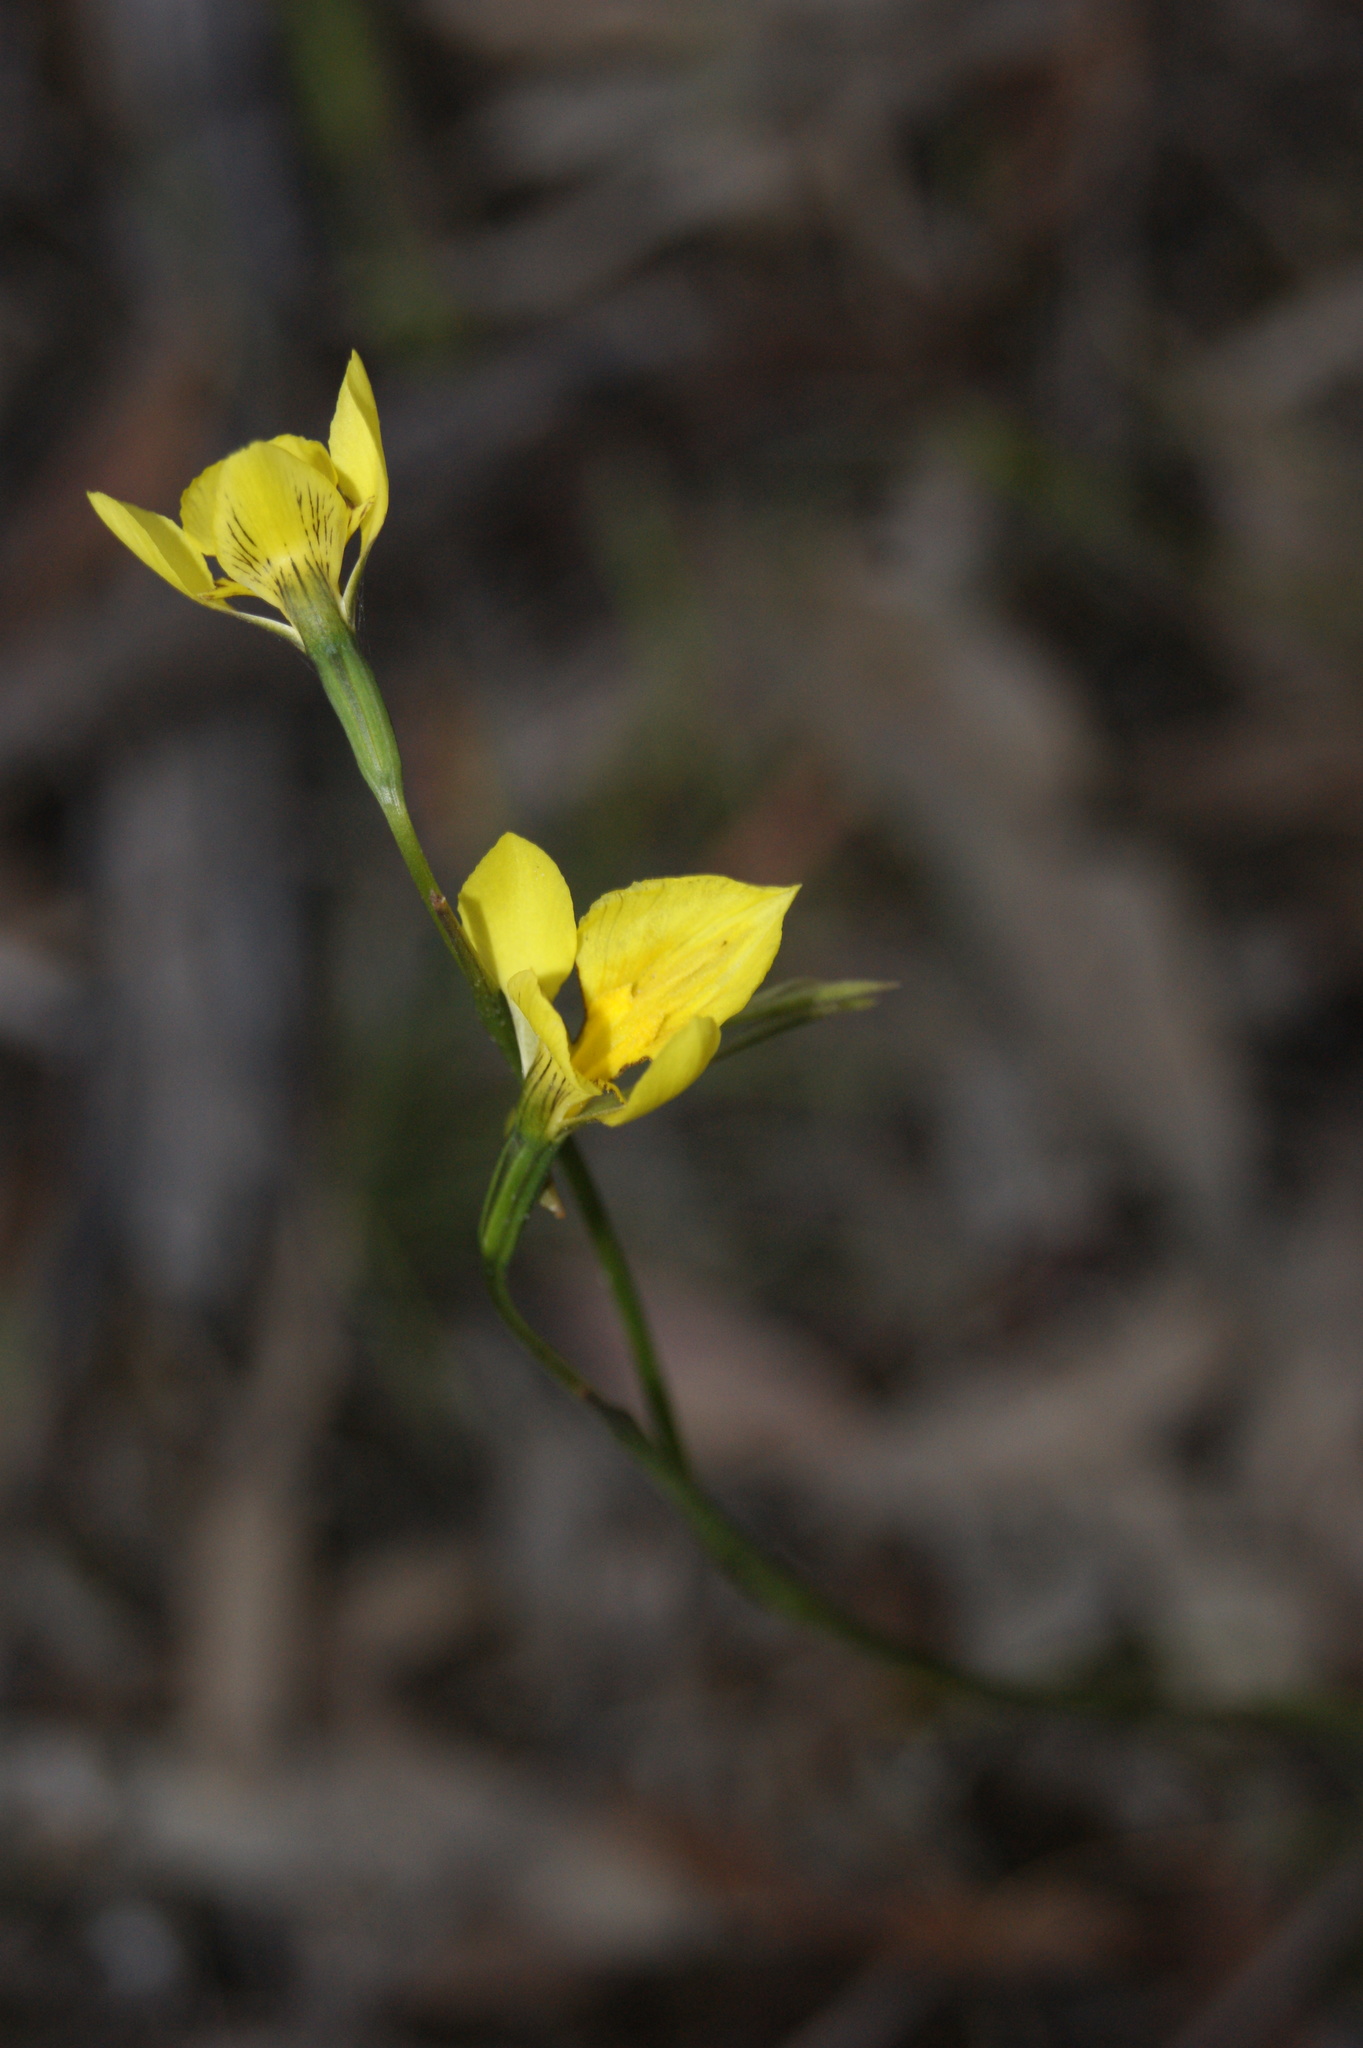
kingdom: Plantae
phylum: Tracheophyta
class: Liliopsida
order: Asparagales
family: Orchidaceae
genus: Diuris
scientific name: Diuris behrii
